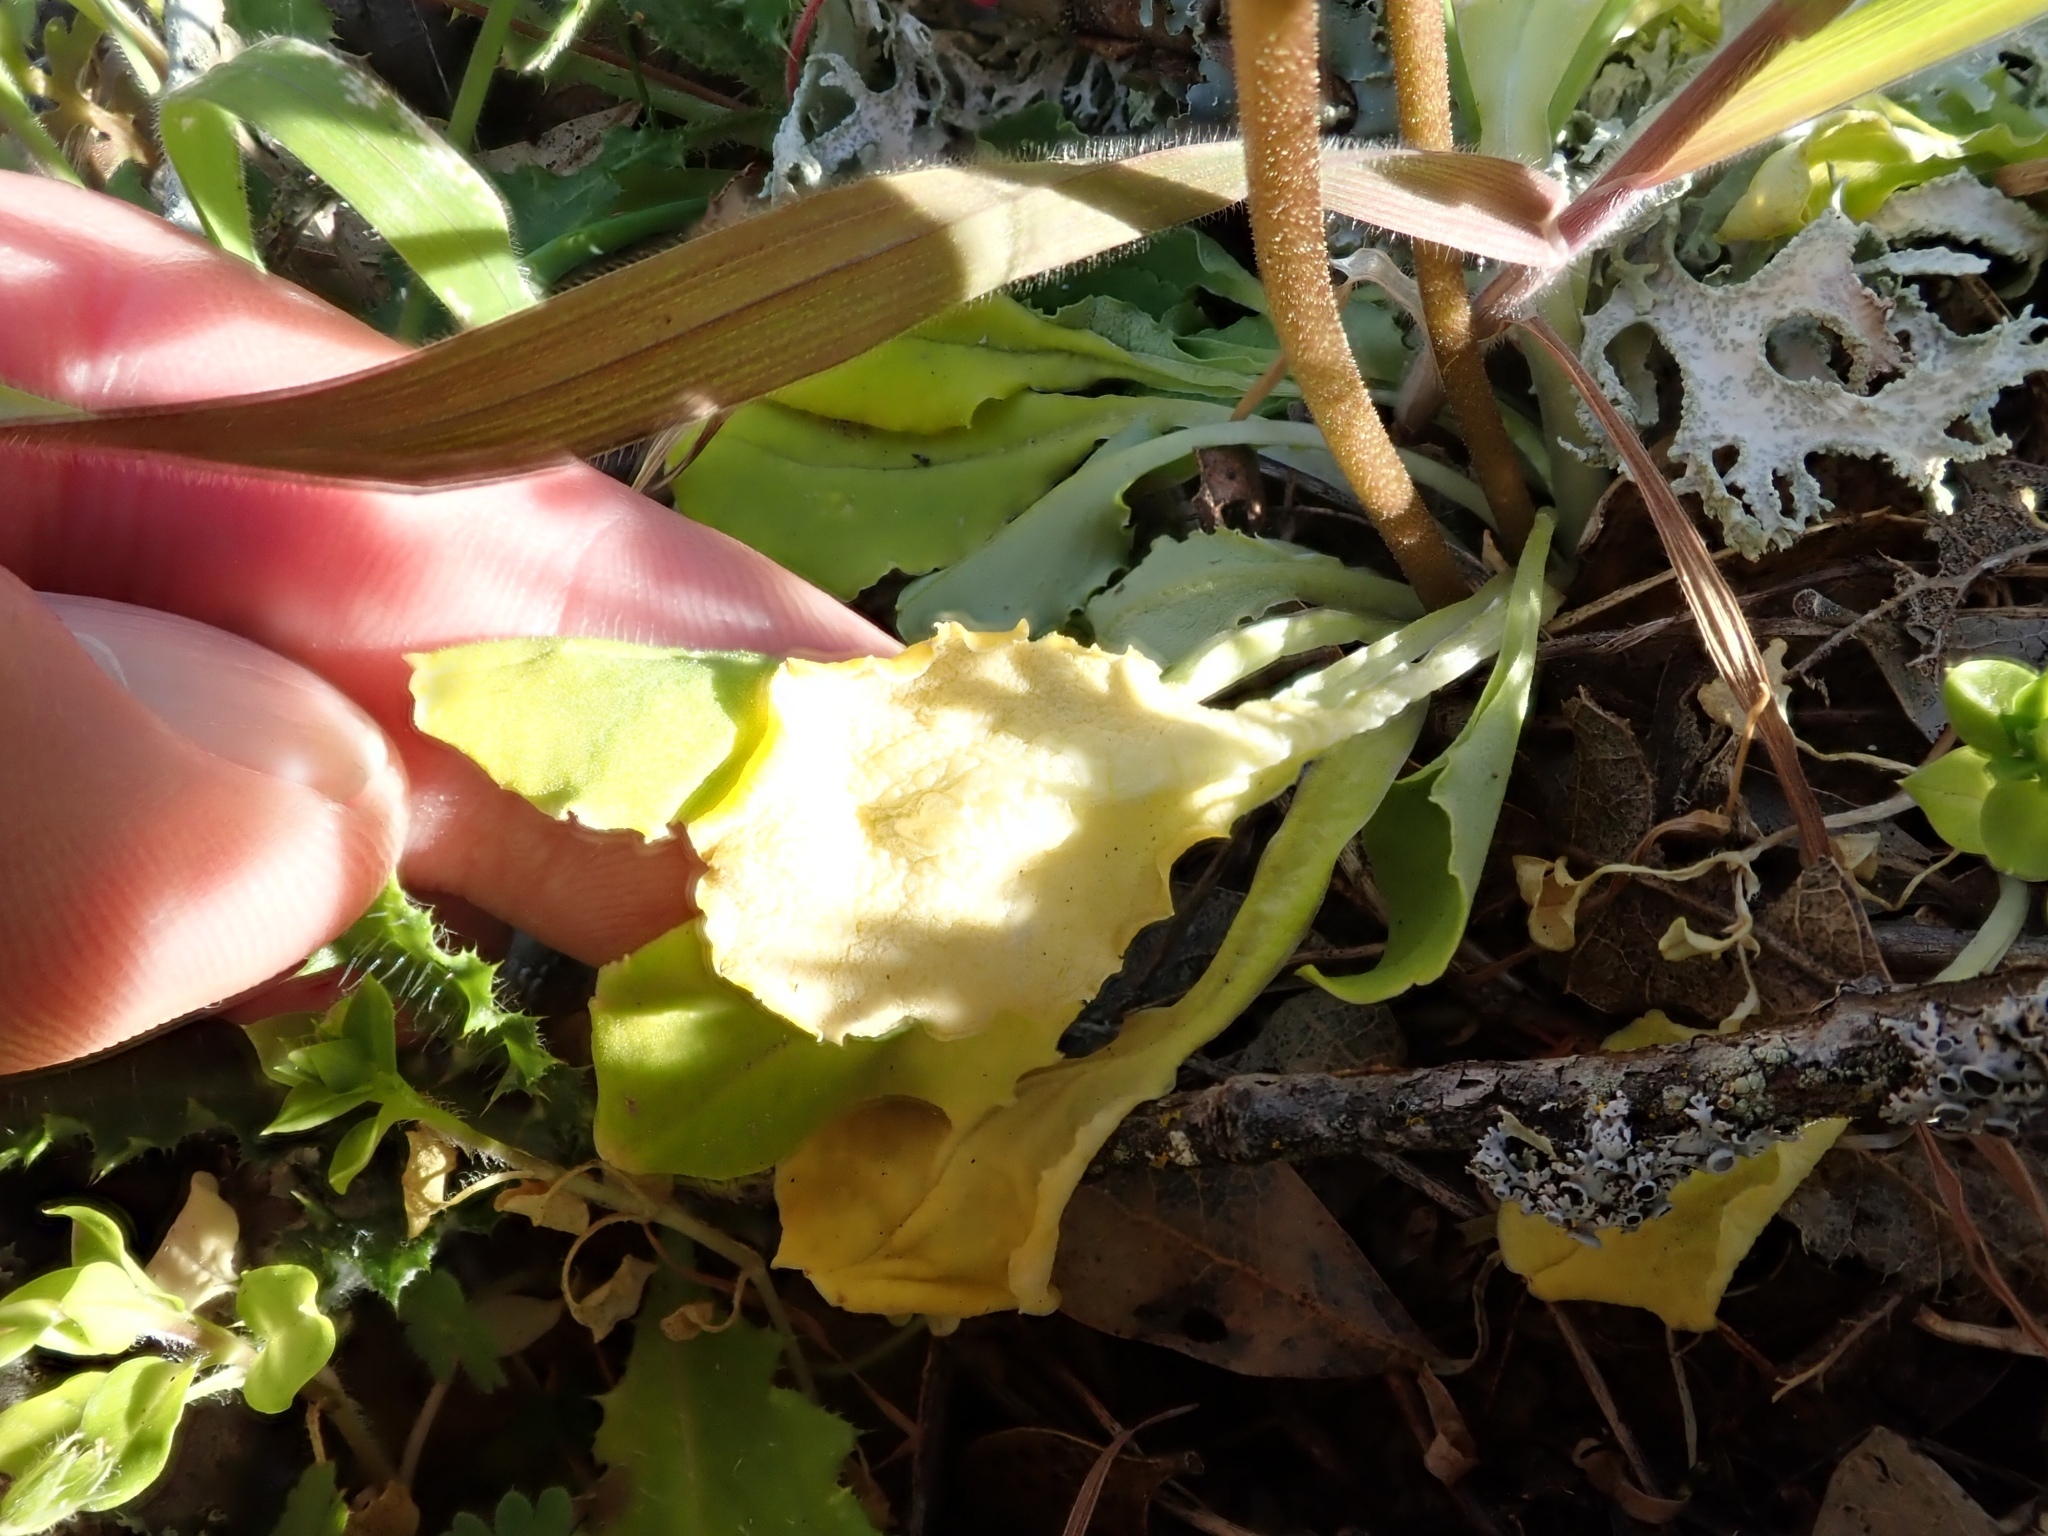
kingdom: Plantae
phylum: Tracheophyta
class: Magnoliopsida
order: Ericales
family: Primulaceae
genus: Dodecatheon
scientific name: Dodecatheon hendersonii
